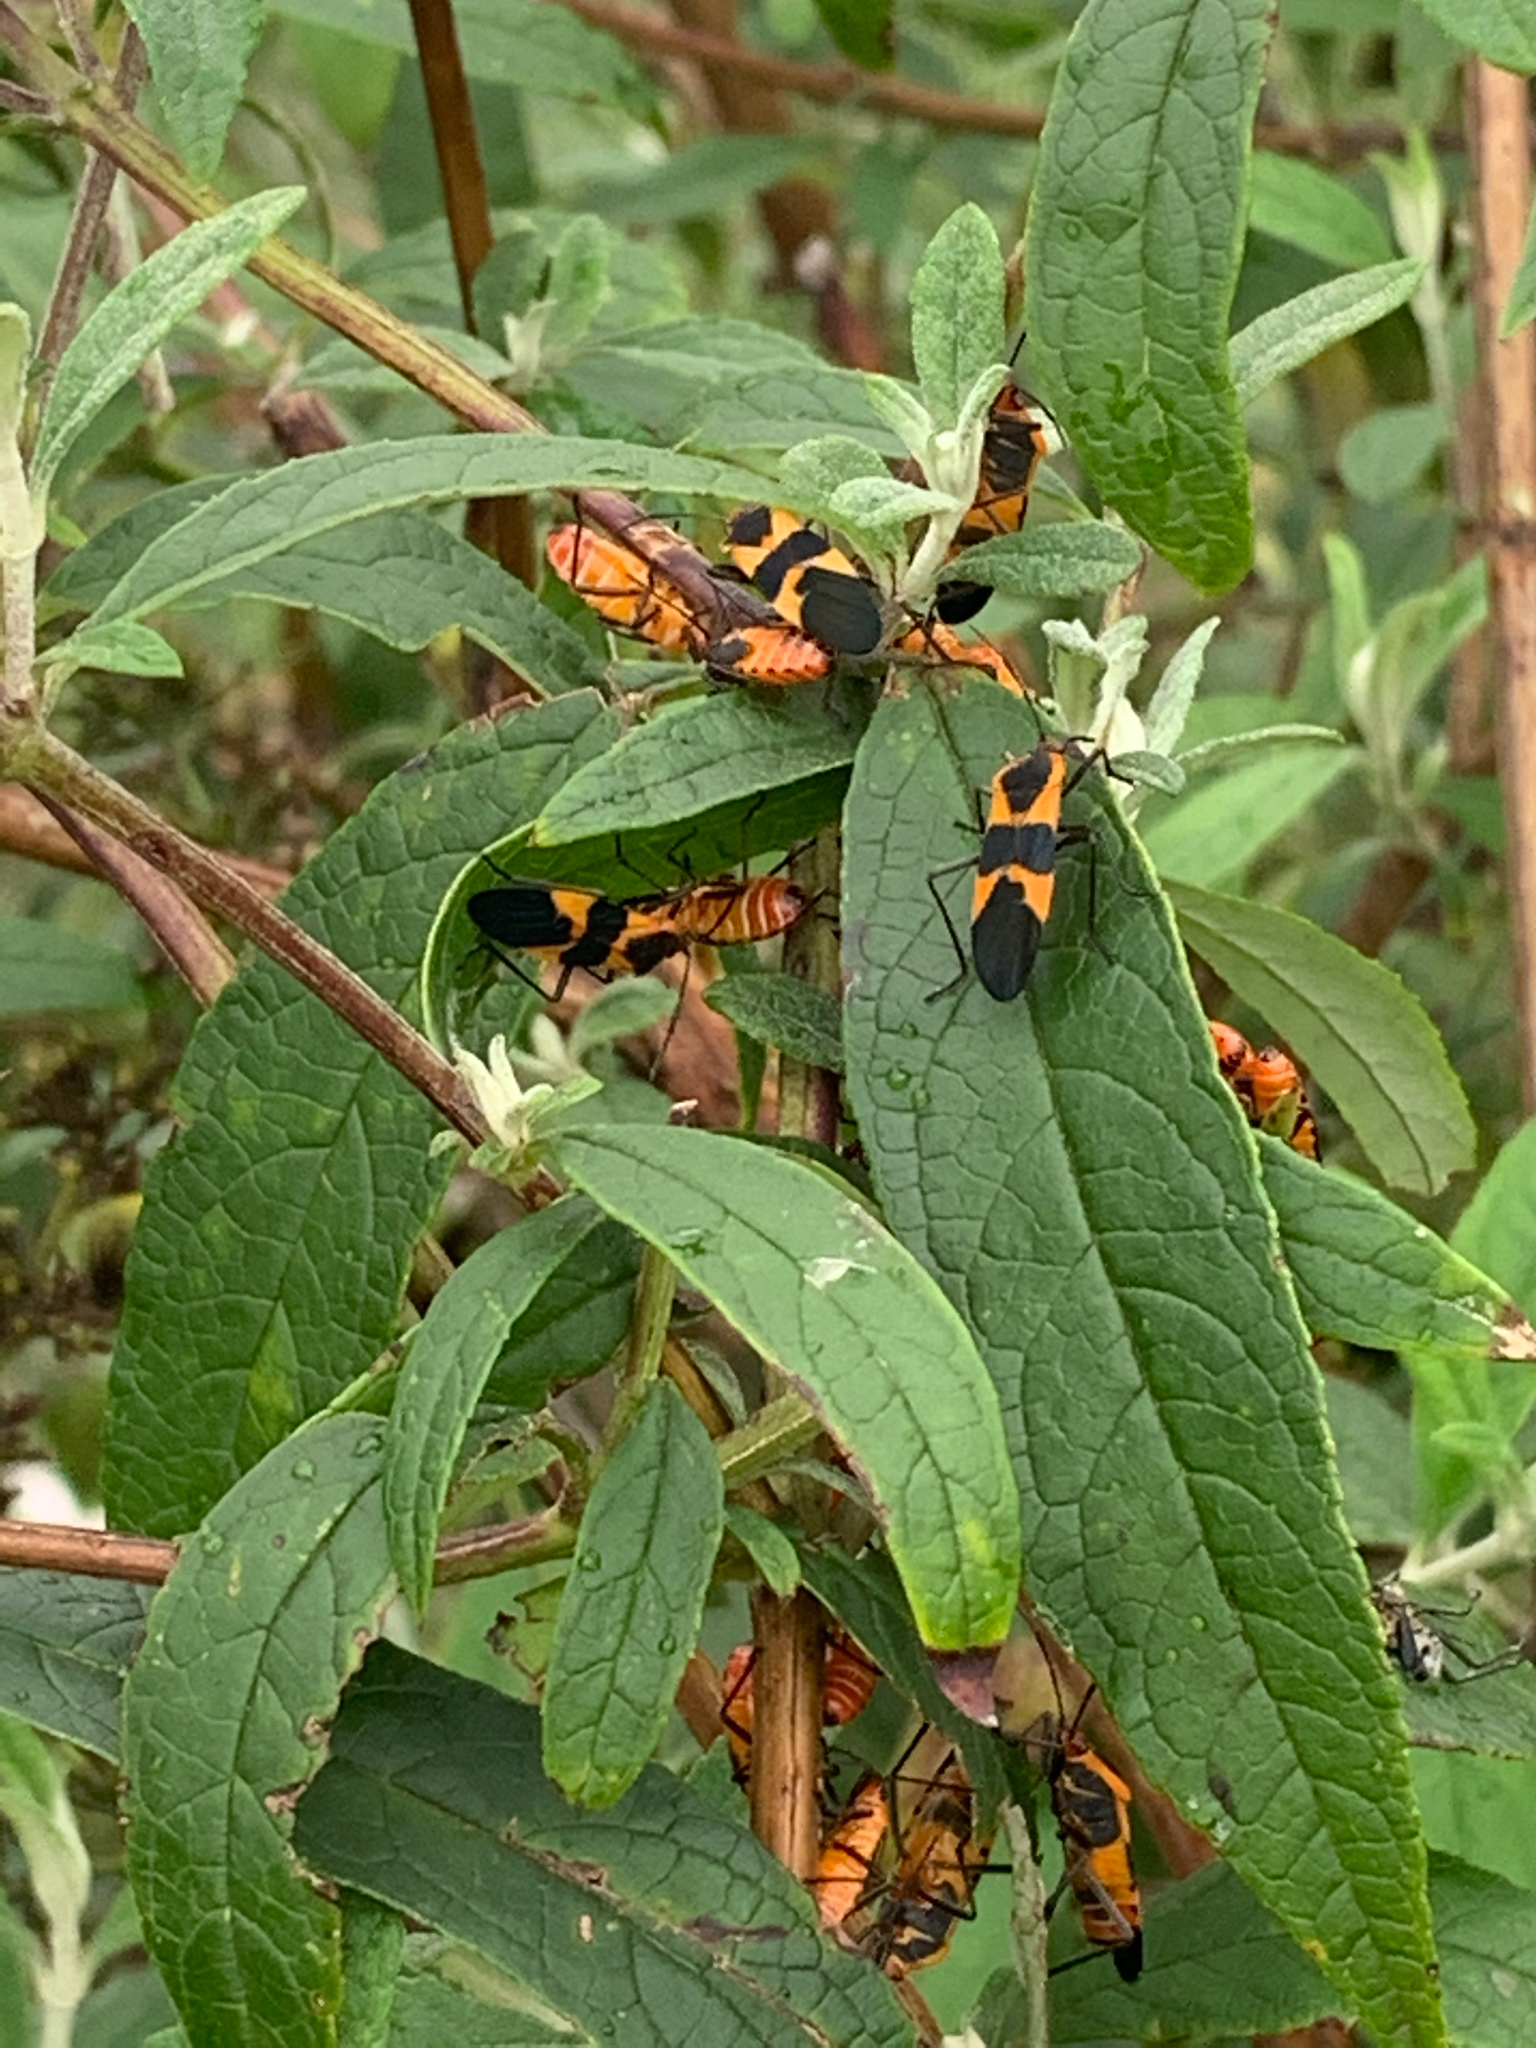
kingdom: Animalia
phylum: Arthropoda
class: Insecta
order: Hemiptera
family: Lygaeidae
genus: Oncopeltus
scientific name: Oncopeltus fasciatus
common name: Large milkweed bug
